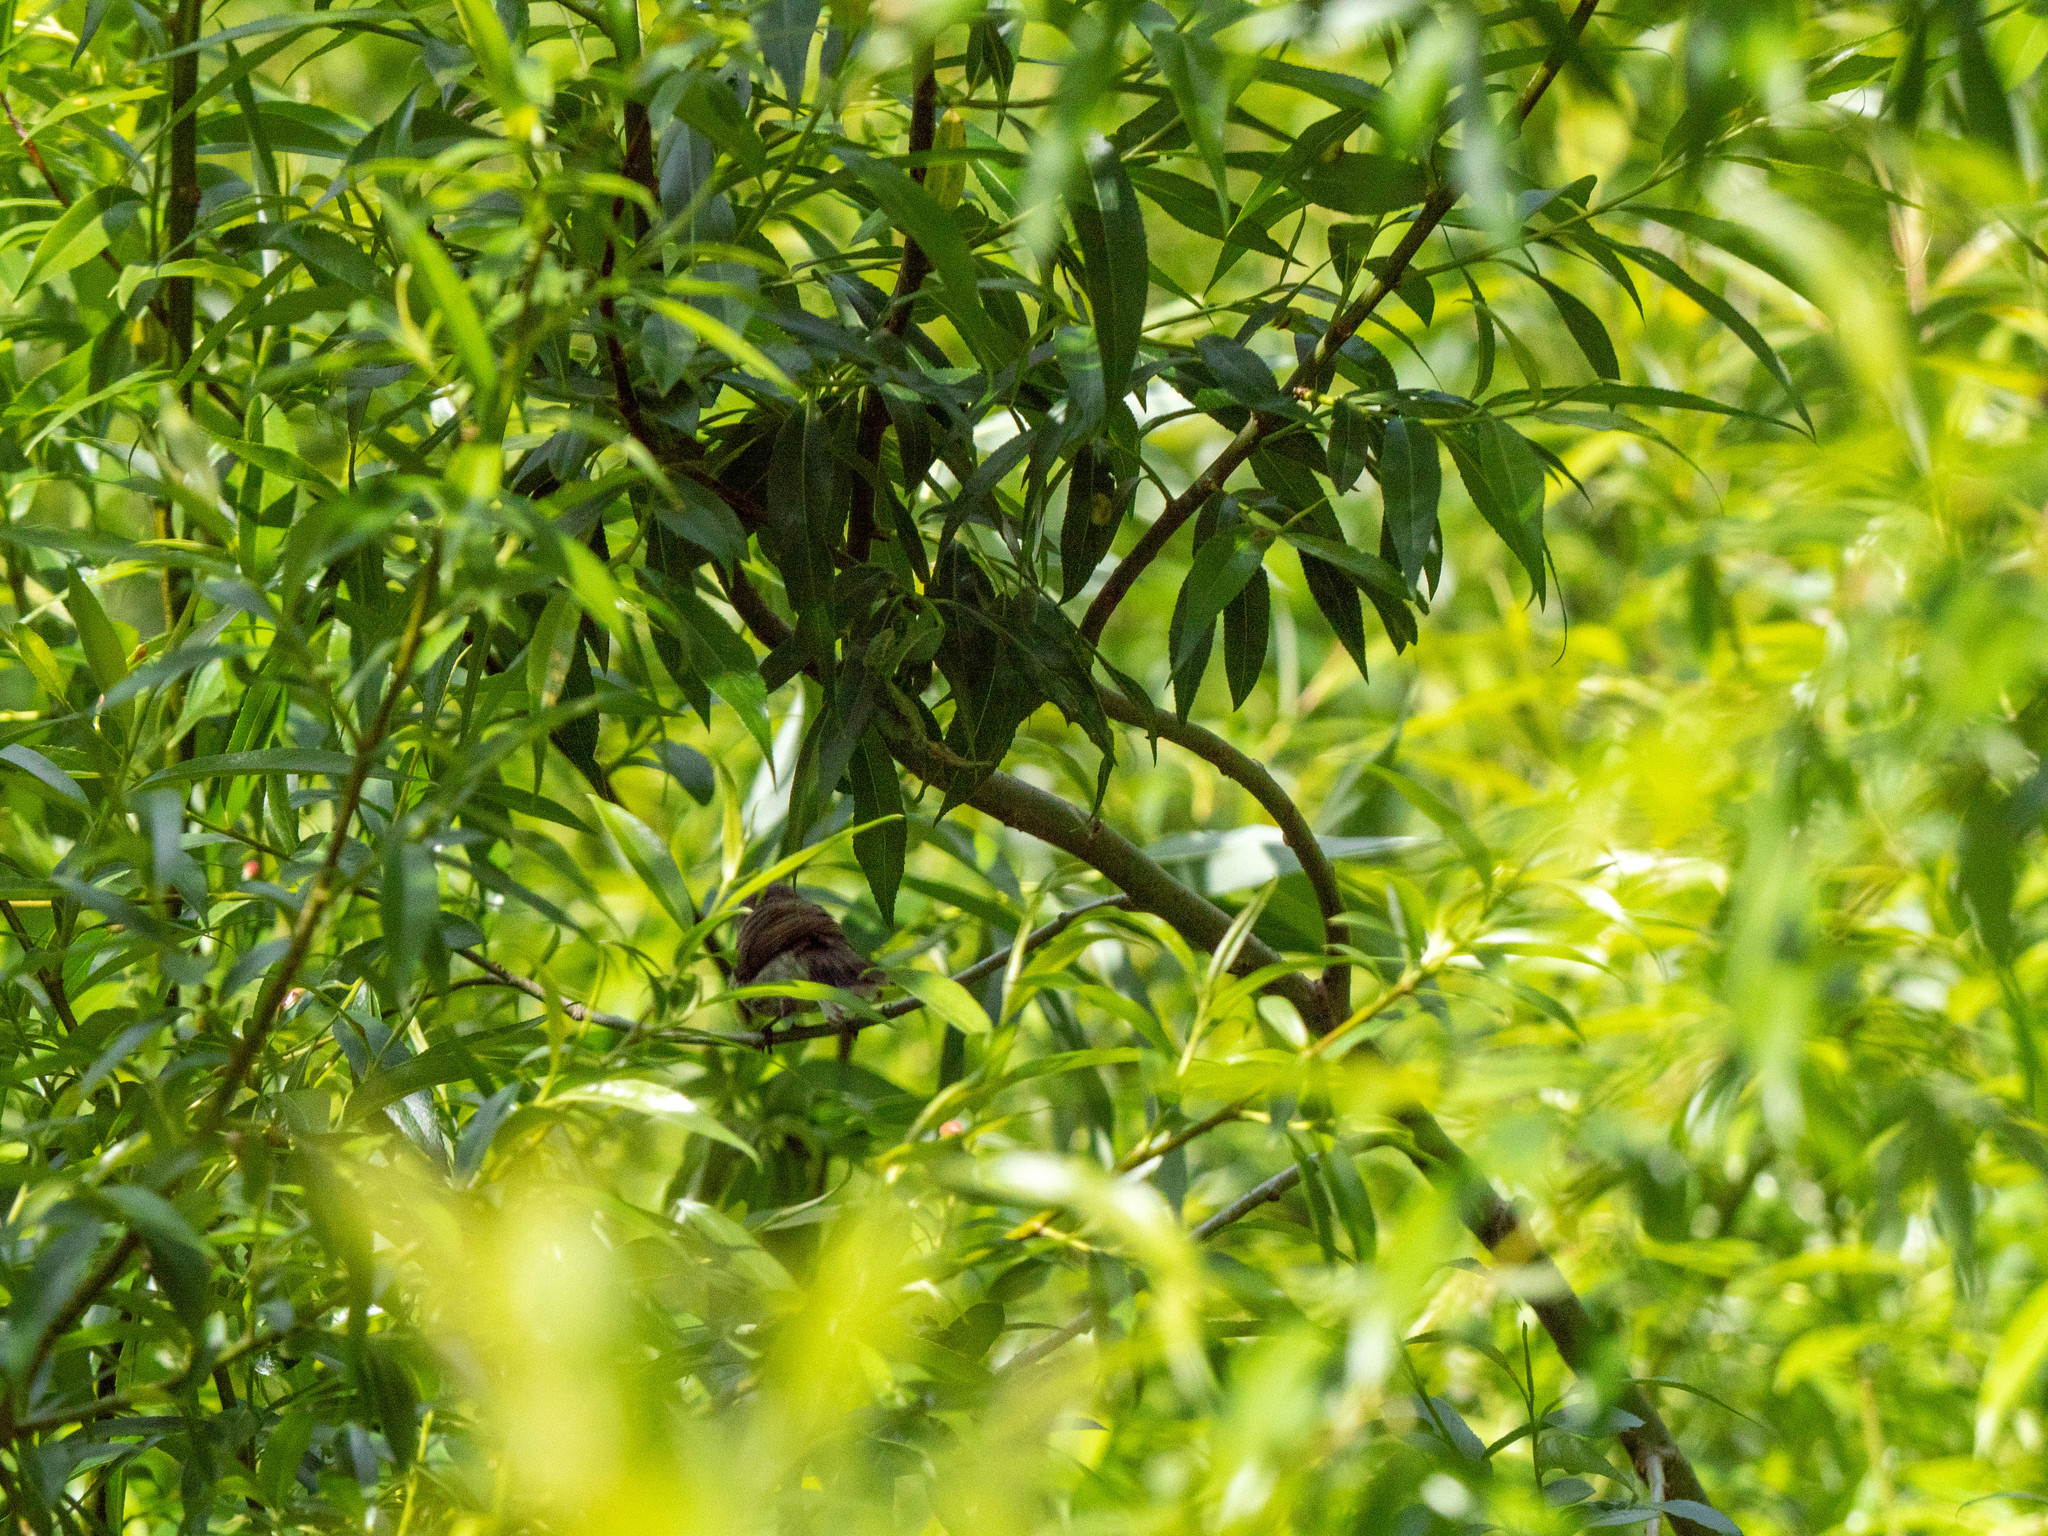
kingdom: Animalia
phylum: Chordata
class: Aves
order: Passeriformes
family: Acanthizidae
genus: Gerygone
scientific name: Gerygone igata
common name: Grey gerygone
